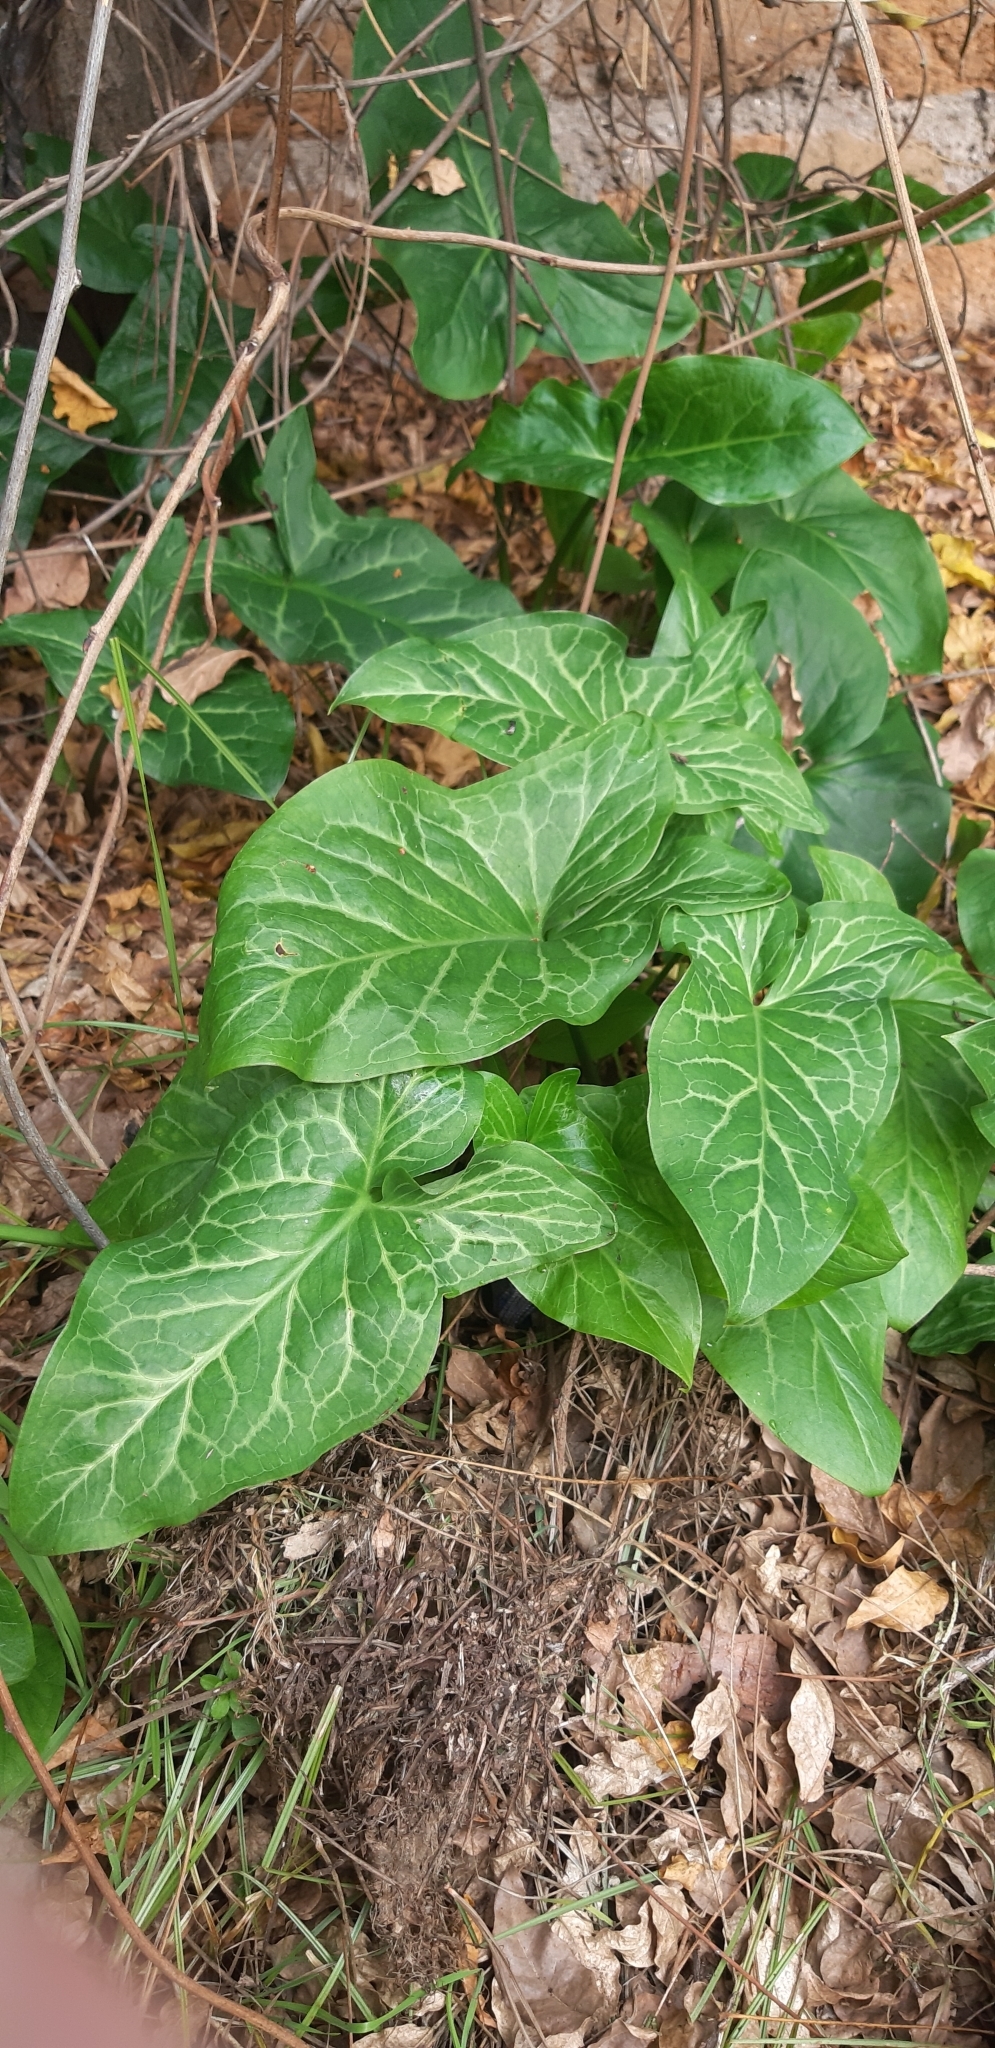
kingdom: Plantae
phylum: Tracheophyta
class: Liliopsida
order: Alismatales
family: Araceae
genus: Arum
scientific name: Arum italicum
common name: Italian lords-and-ladies
